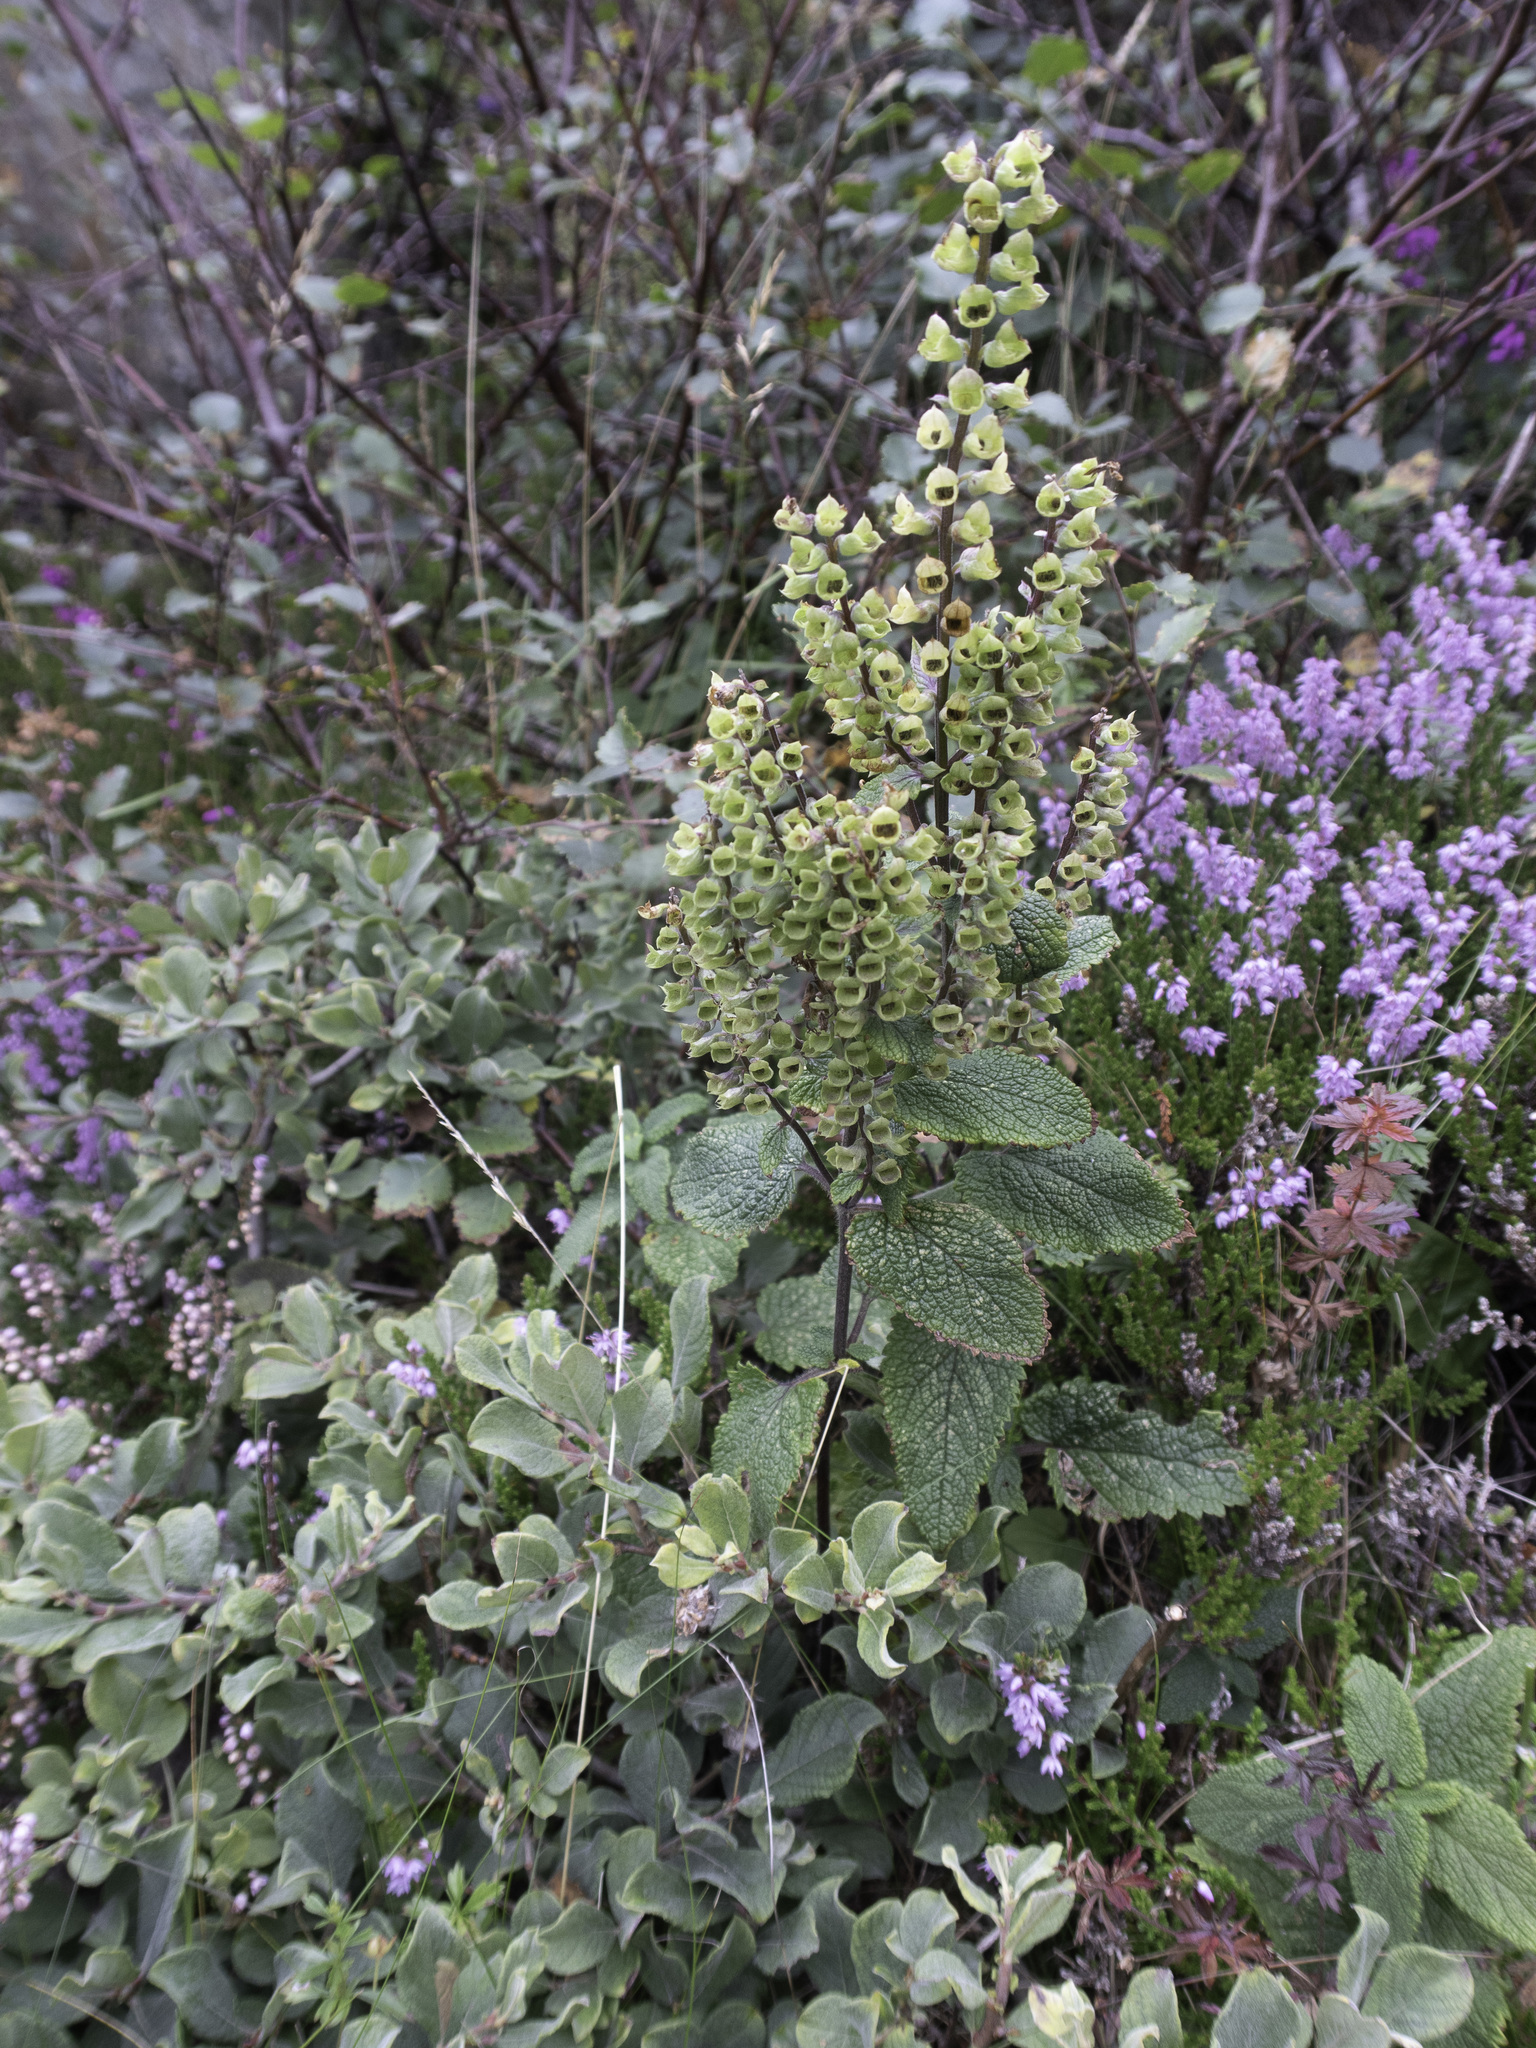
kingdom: Plantae
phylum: Tracheophyta
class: Magnoliopsida
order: Lamiales
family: Lamiaceae
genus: Teucrium
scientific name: Teucrium scorodonia
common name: Woodland germander
